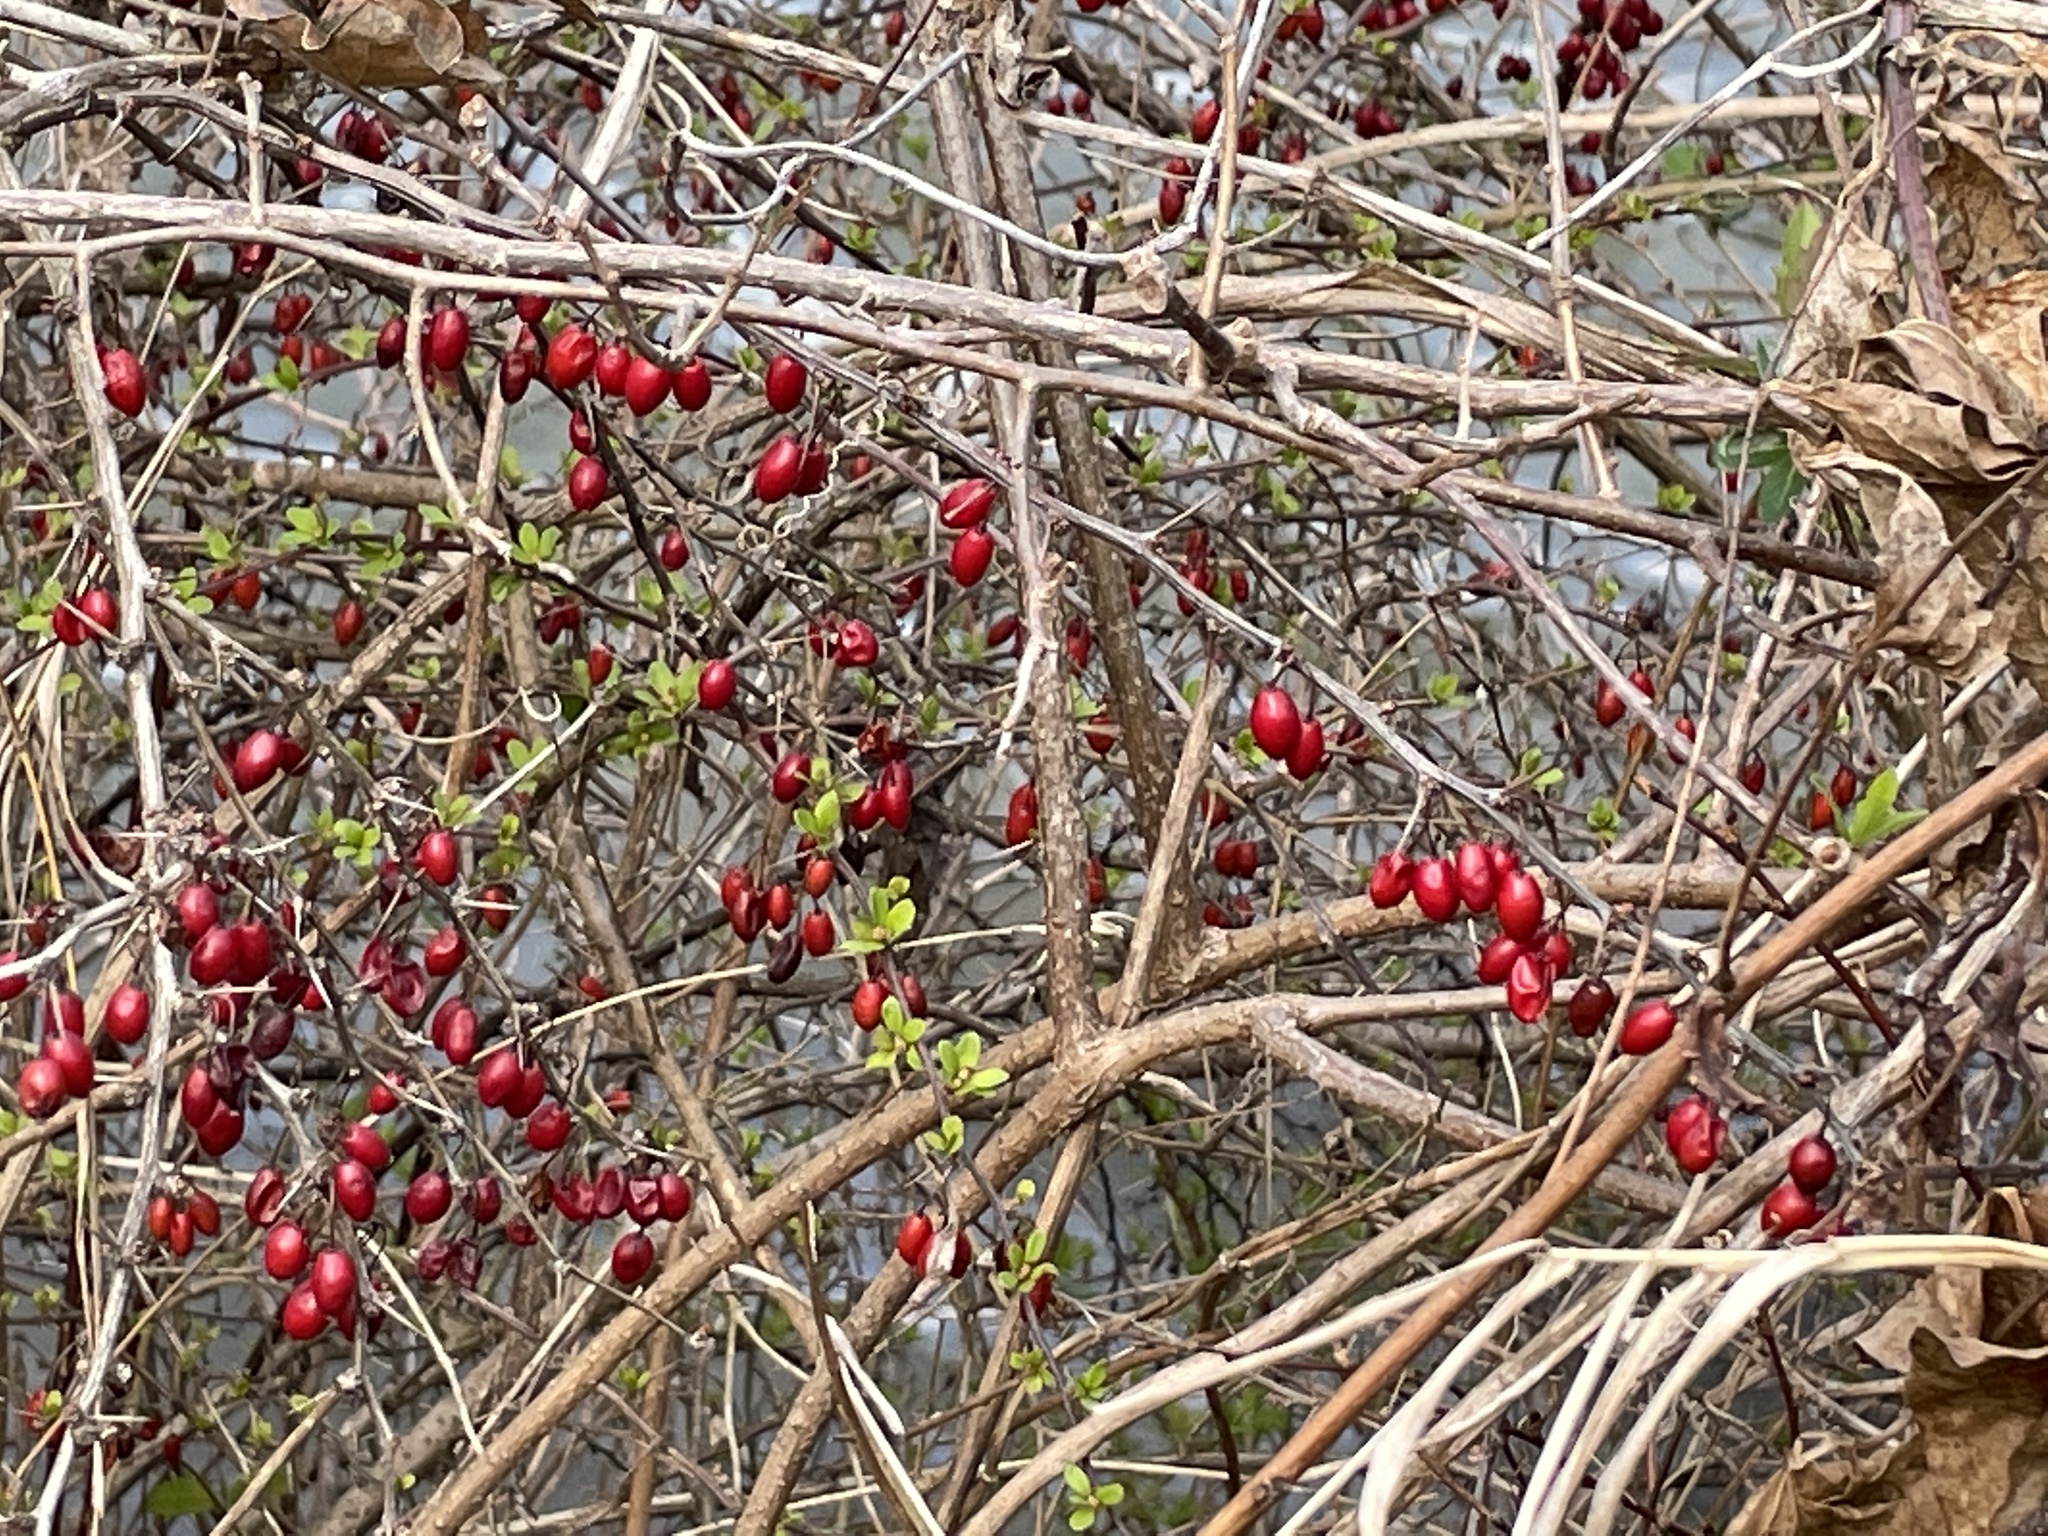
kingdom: Plantae
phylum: Tracheophyta
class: Magnoliopsida
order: Ranunculales
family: Berberidaceae
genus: Berberis
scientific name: Berberis thunbergii
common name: Japanese barberry
